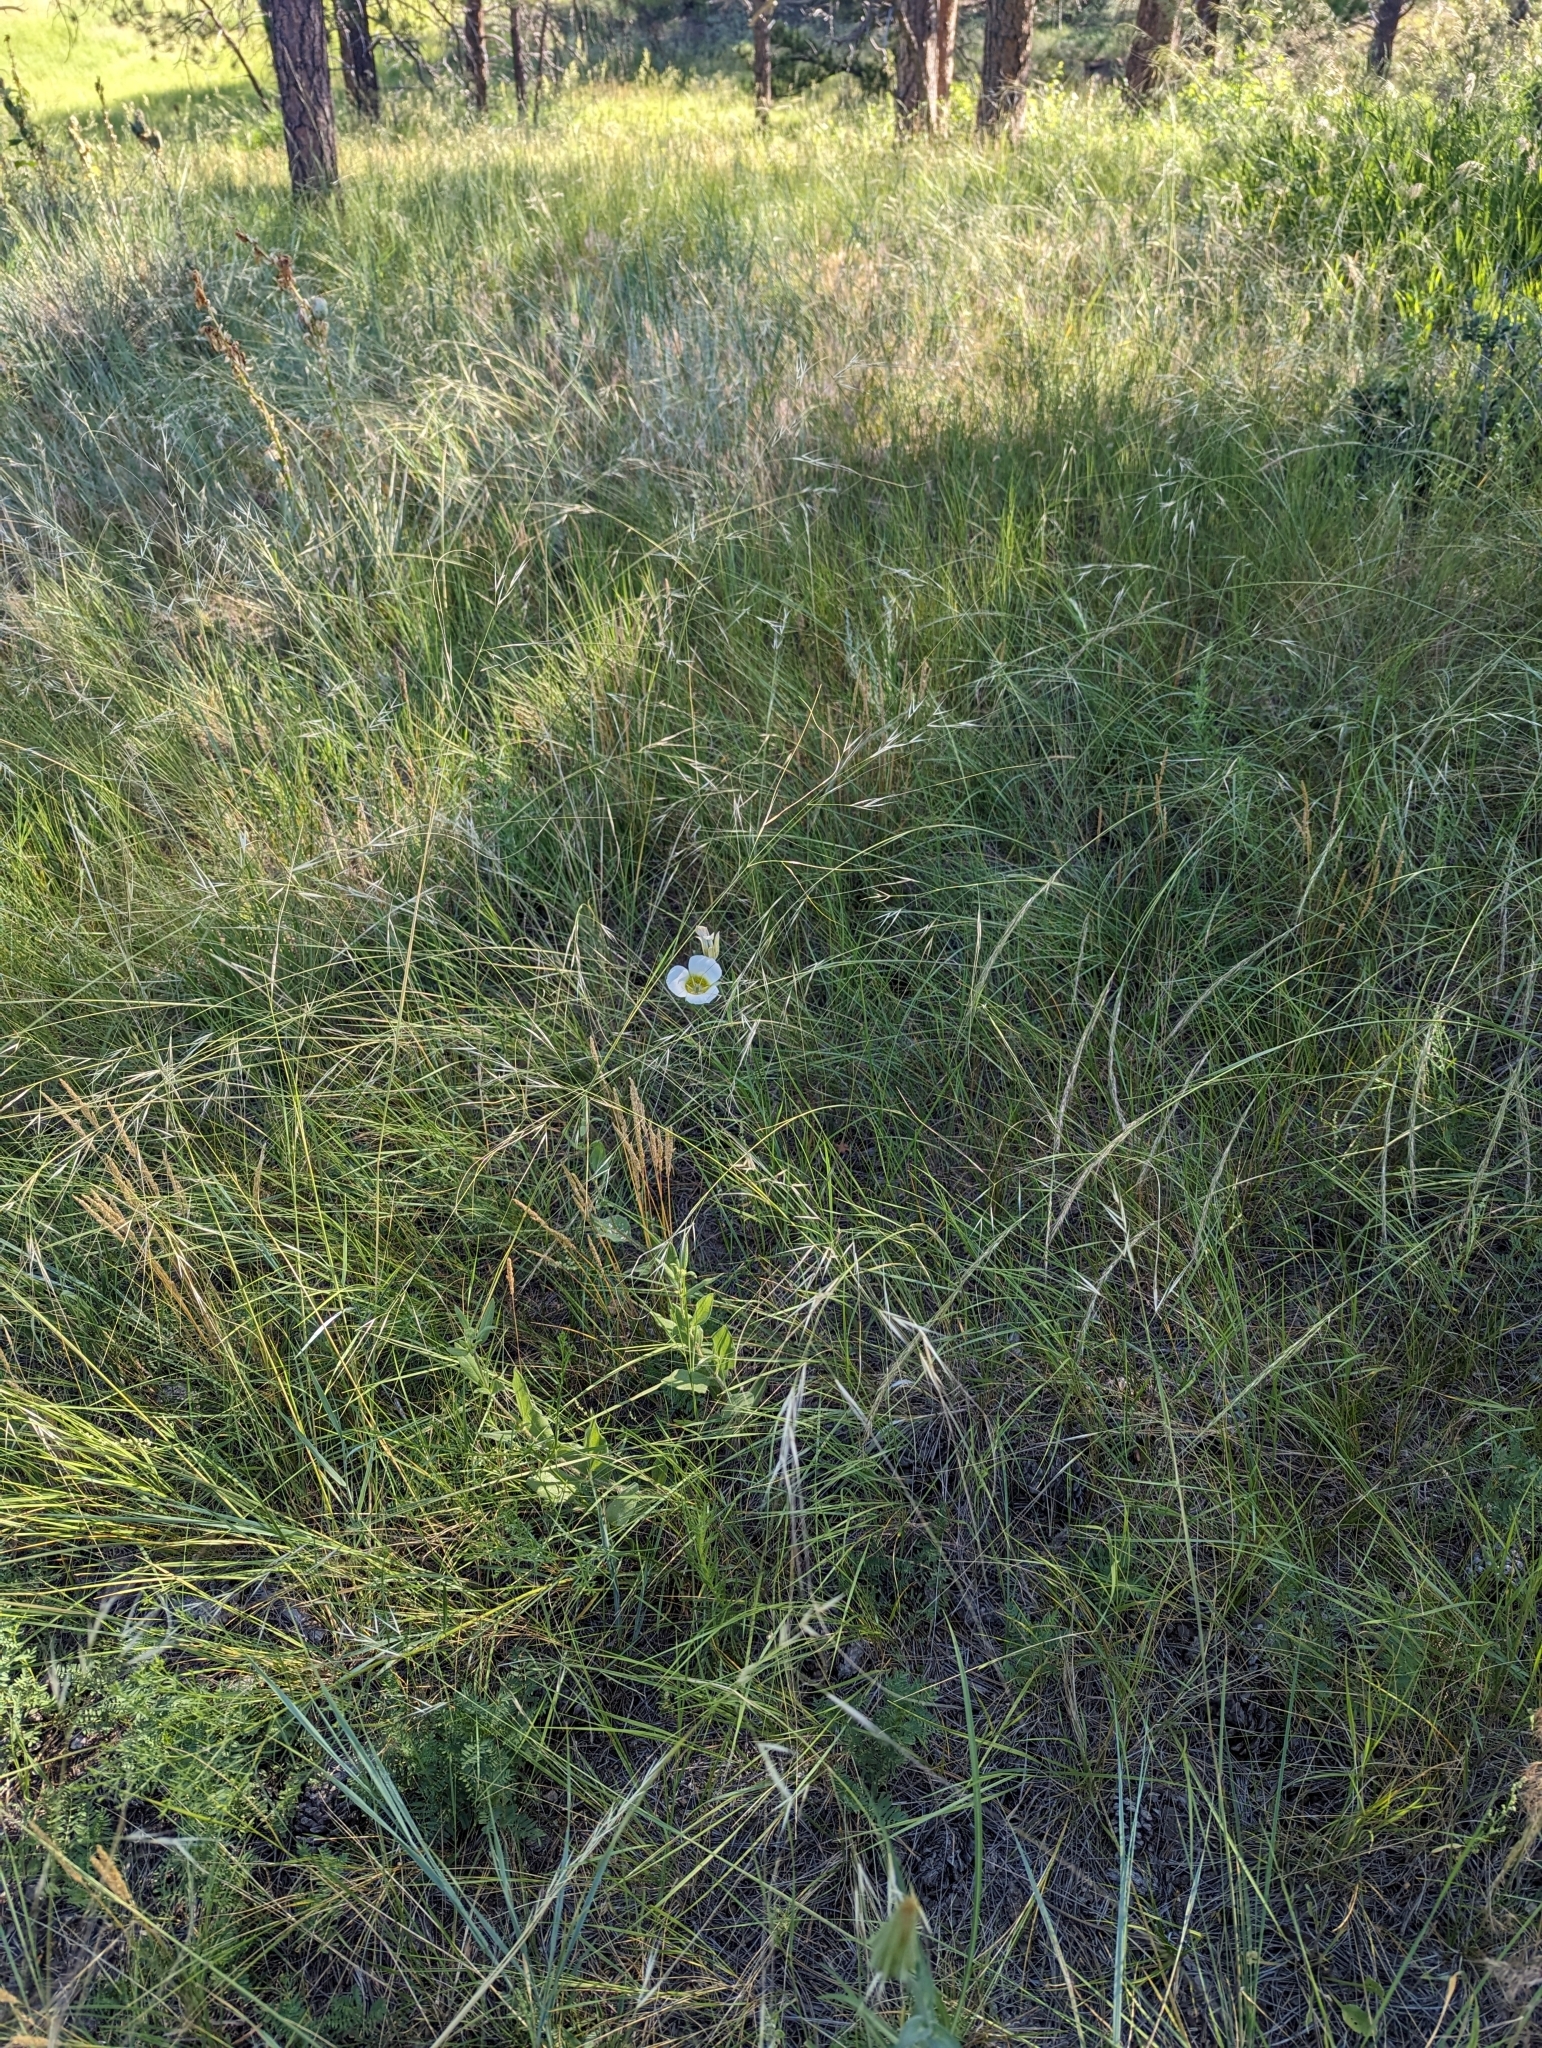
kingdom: Plantae
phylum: Tracheophyta
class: Liliopsida
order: Liliales
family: Liliaceae
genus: Calochortus
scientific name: Calochortus gunnisonii
